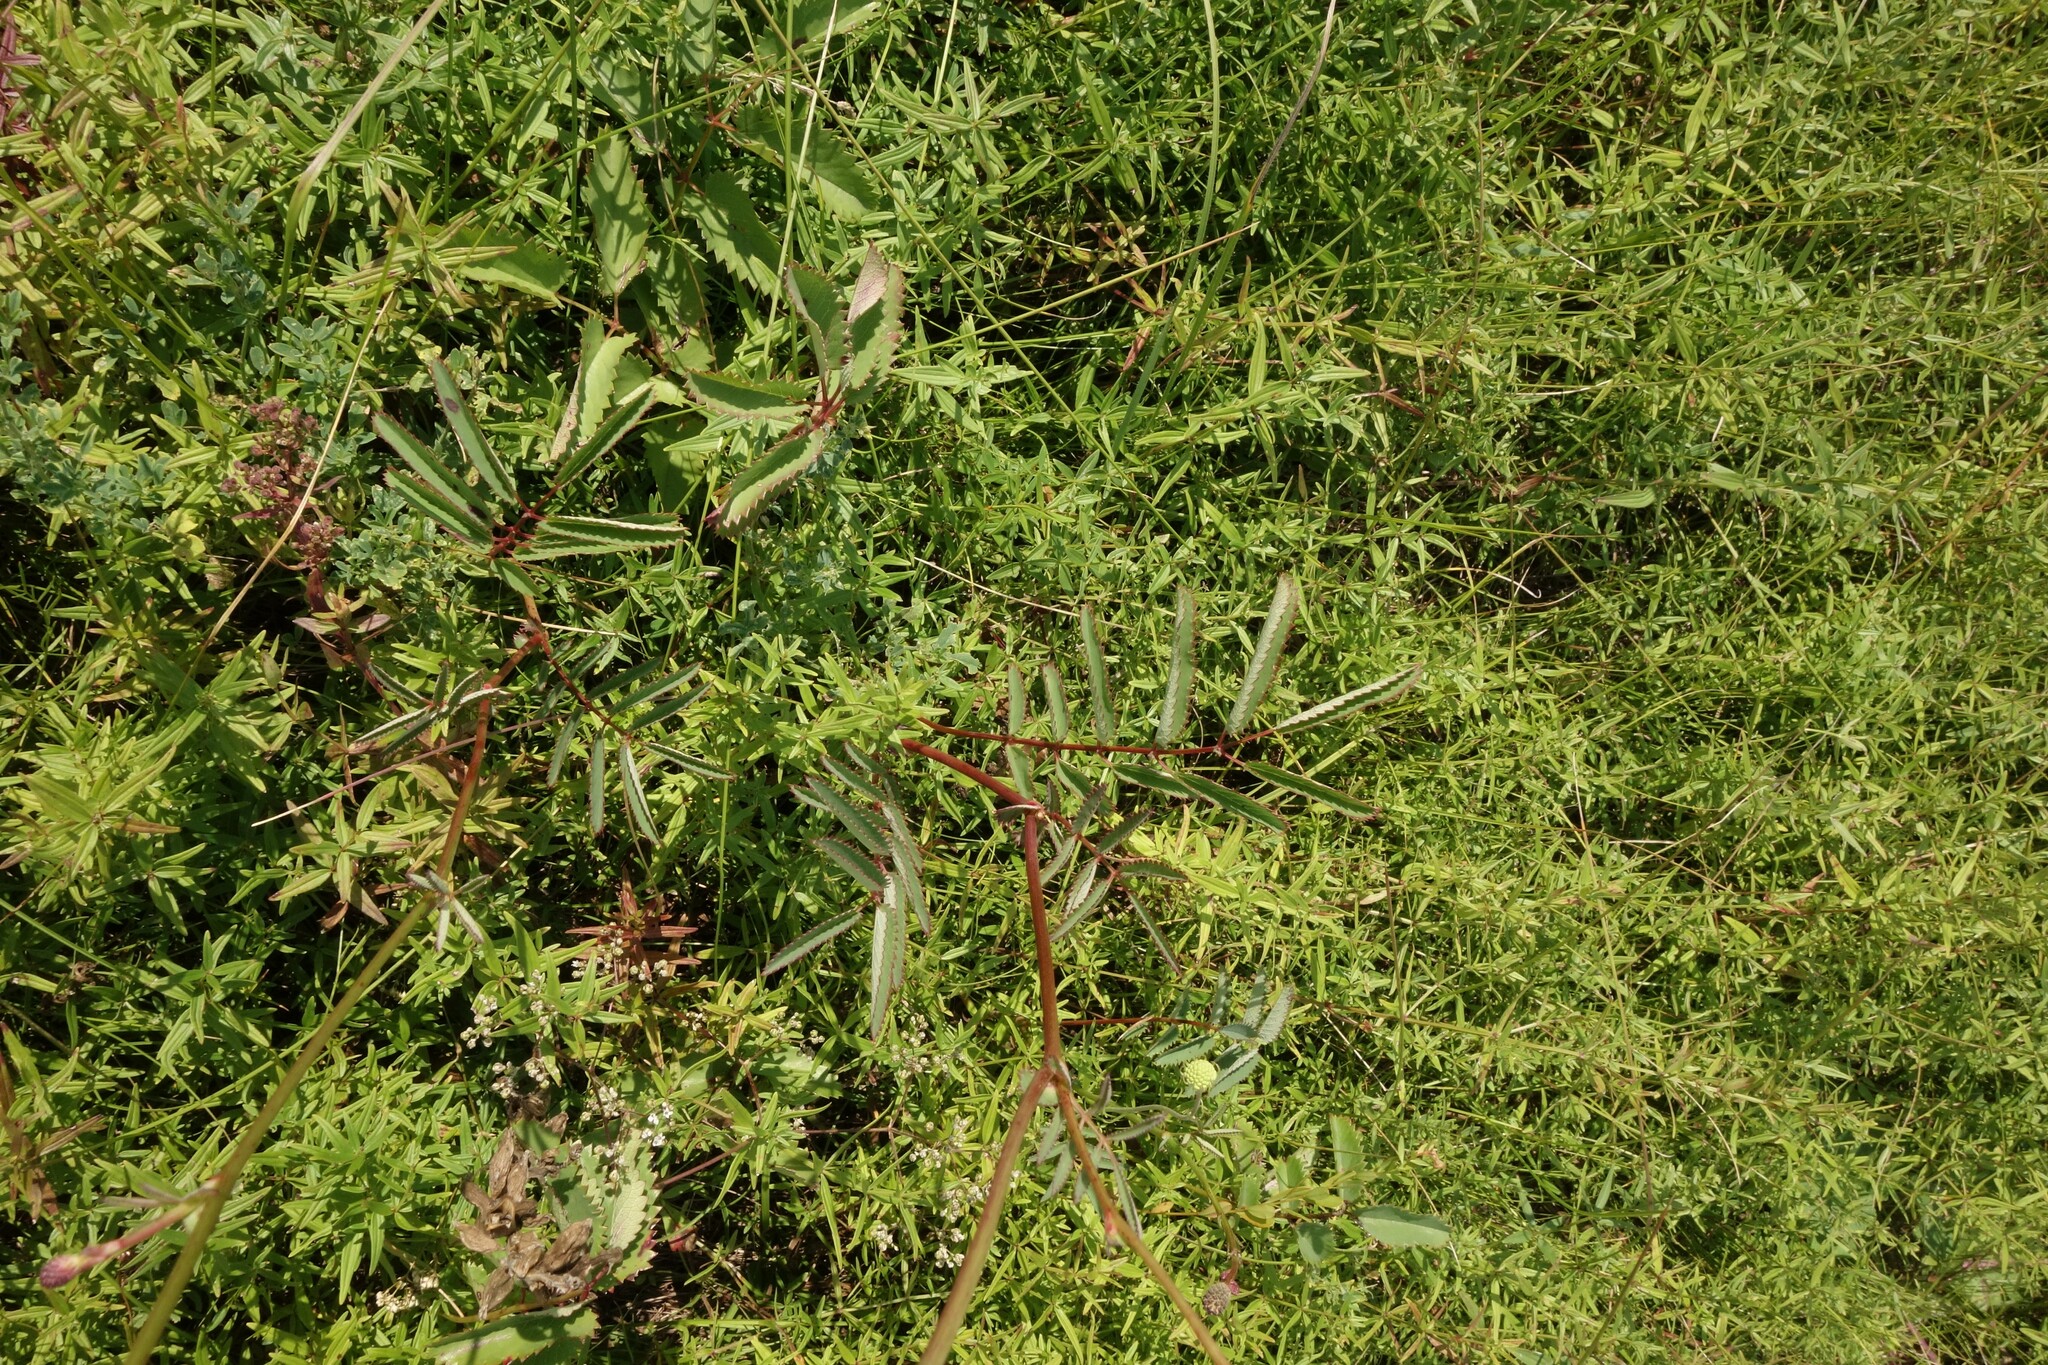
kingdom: Plantae
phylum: Tracheophyta
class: Magnoliopsida
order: Rosales
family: Rosaceae
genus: Sanguisorba
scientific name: Sanguisorba officinalis
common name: Great burnet
